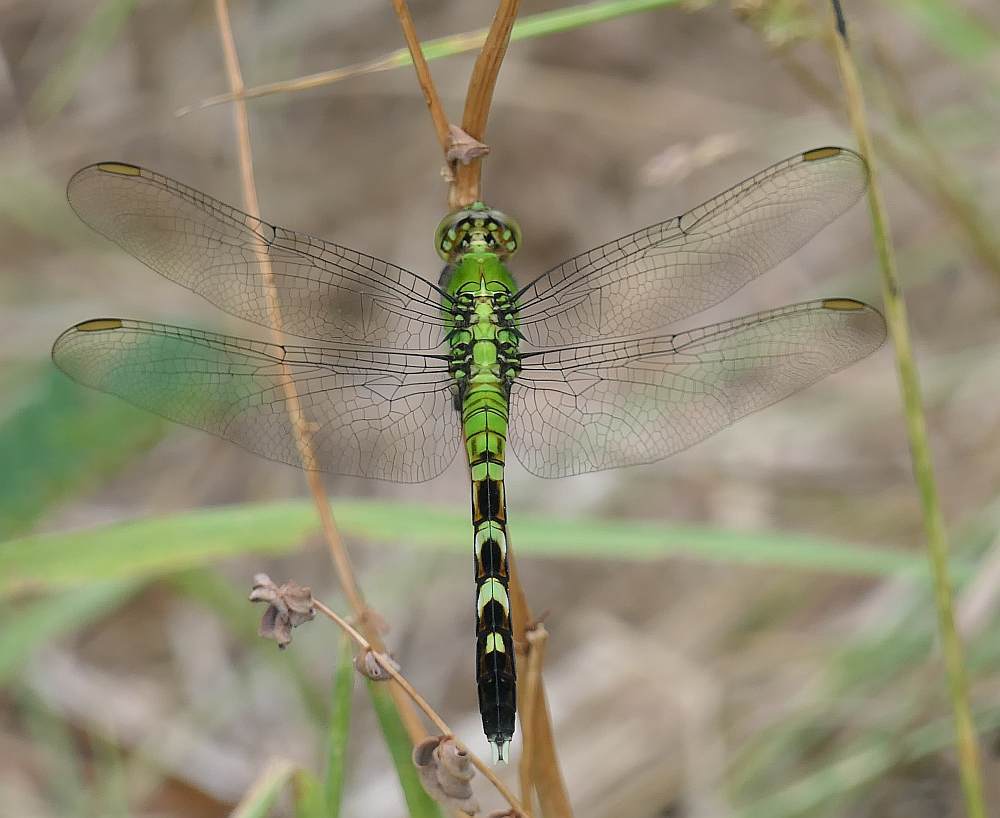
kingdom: Animalia
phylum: Arthropoda
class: Insecta
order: Odonata
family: Libellulidae
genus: Erythemis
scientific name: Erythemis simplicicollis
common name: Eastern pondhawk
